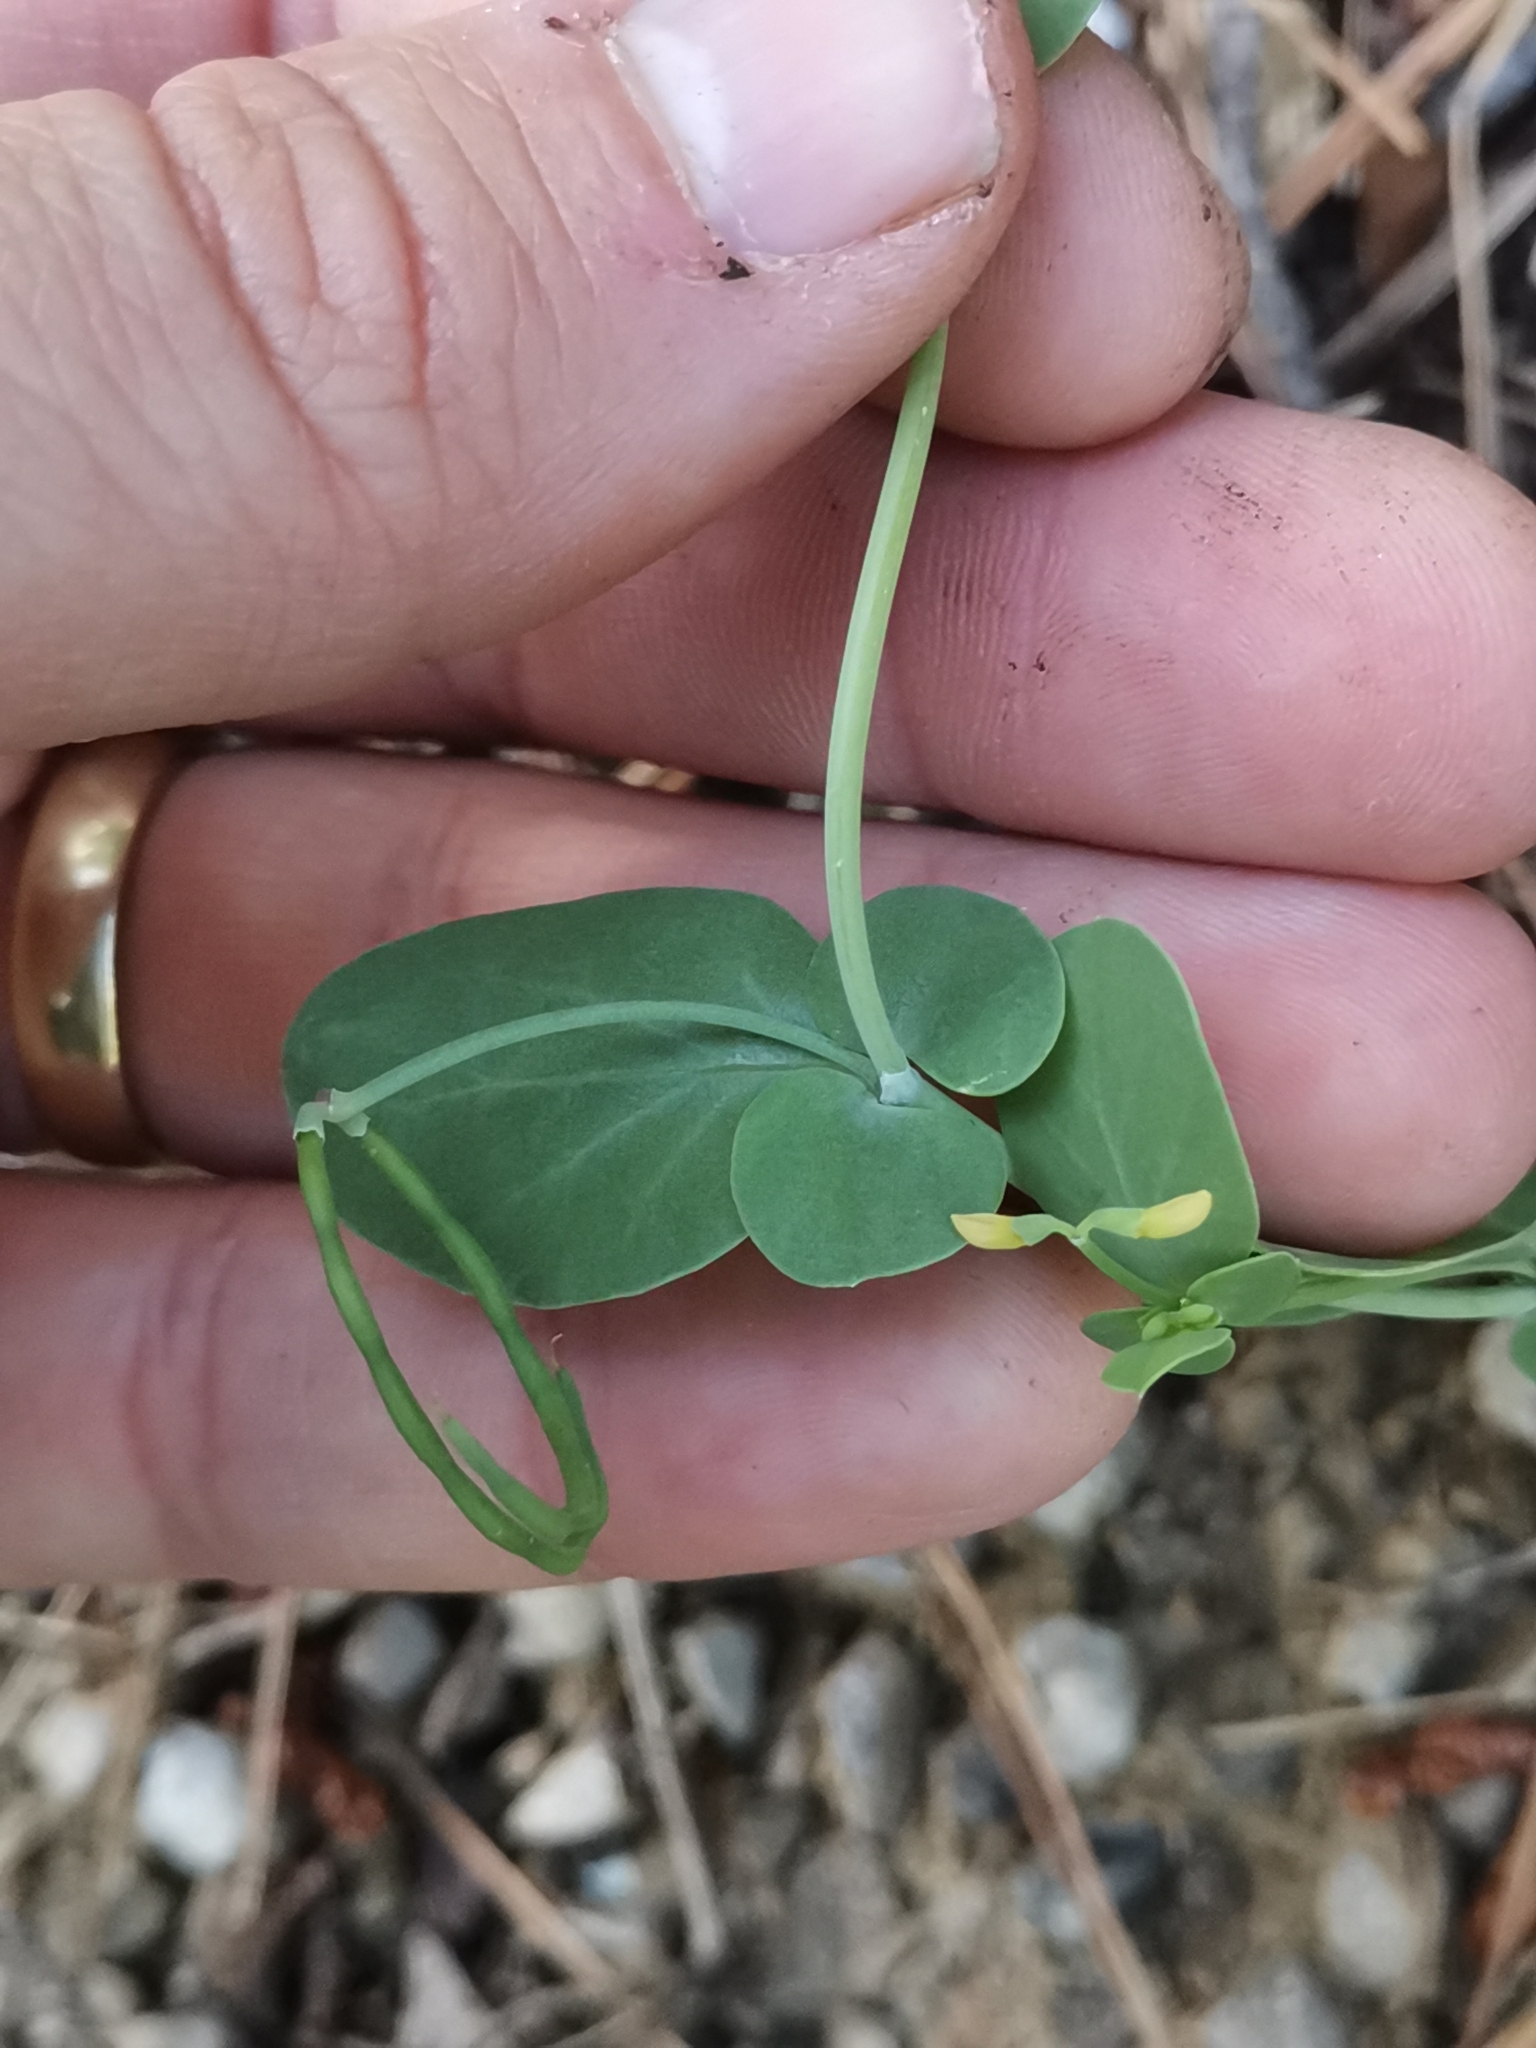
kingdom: Plantae
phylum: Tracheophyta
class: Magnoliopsida
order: Fabales
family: Fabaceae
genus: Coronilla
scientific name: Coronilla scorpioides
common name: Annual scorpion-vetch
